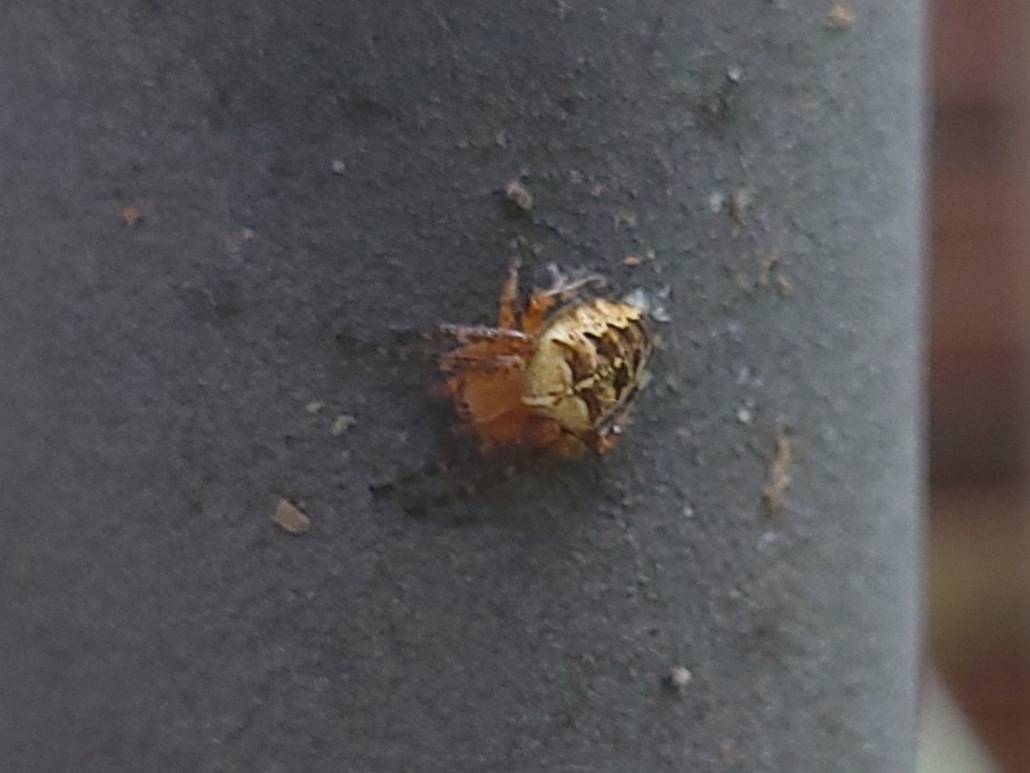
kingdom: Animalia
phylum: Arthropoda
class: Arachnida
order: Araneae
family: Araneidae
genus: Araneus
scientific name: Araneus diadematus
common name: Cross orbweaver
